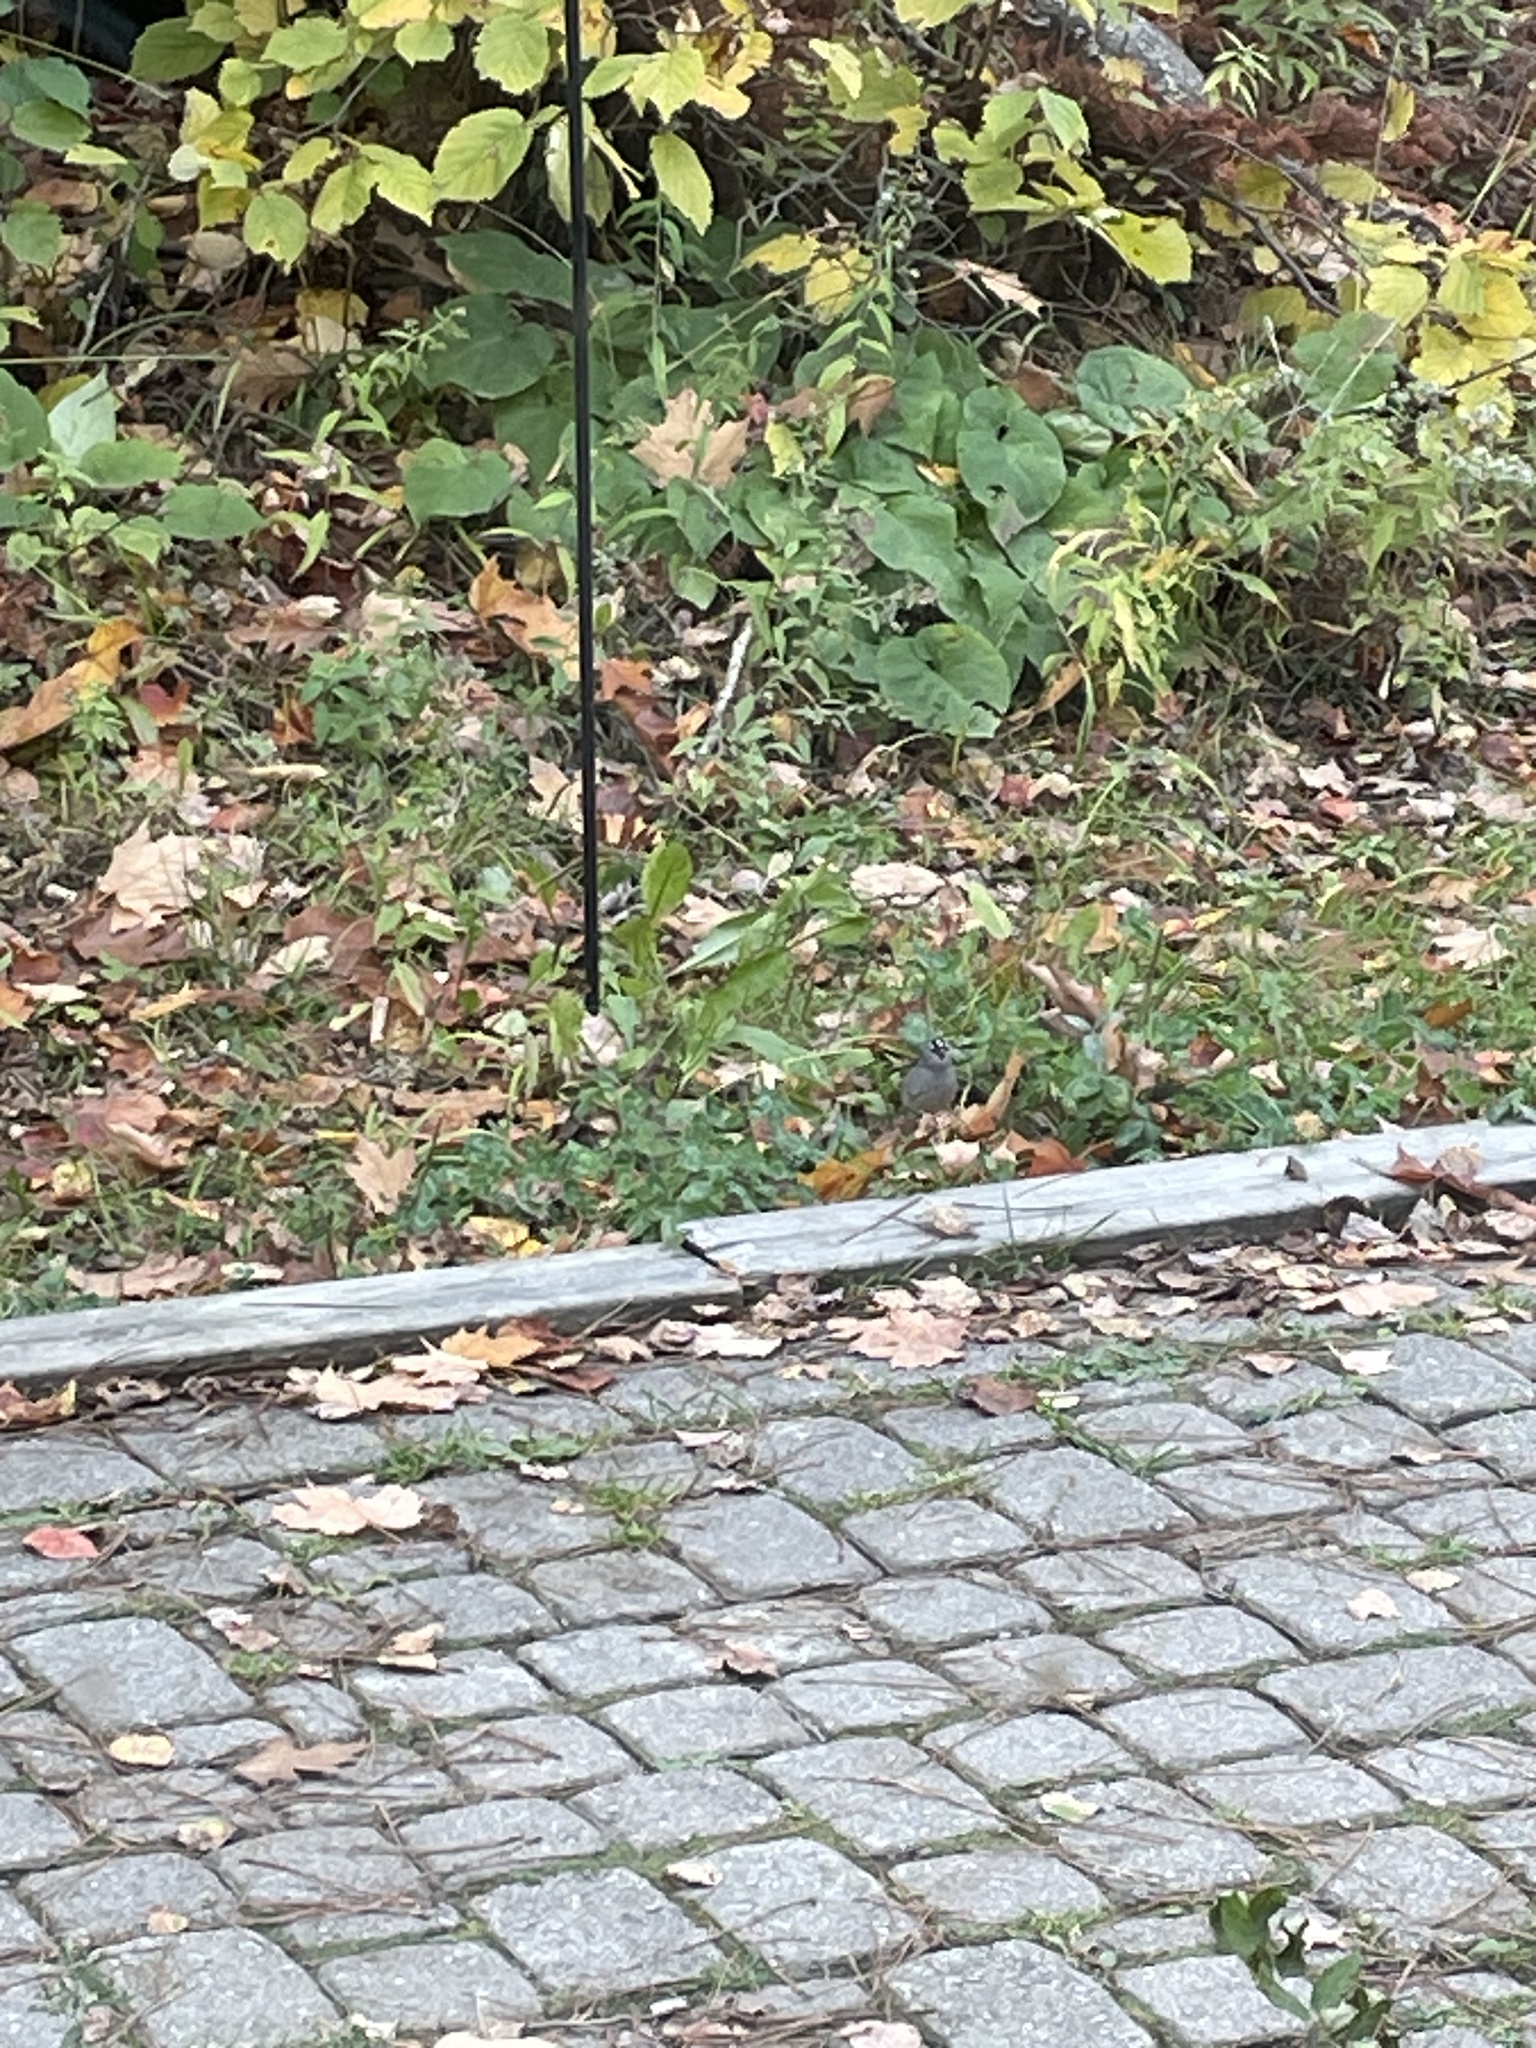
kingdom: Animalia
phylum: Chordata
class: Aves
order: Passeriformes
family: Passerellidae
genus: Zonotrichia
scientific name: Zonotrichia leucophrys
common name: White-crowned sparrow
